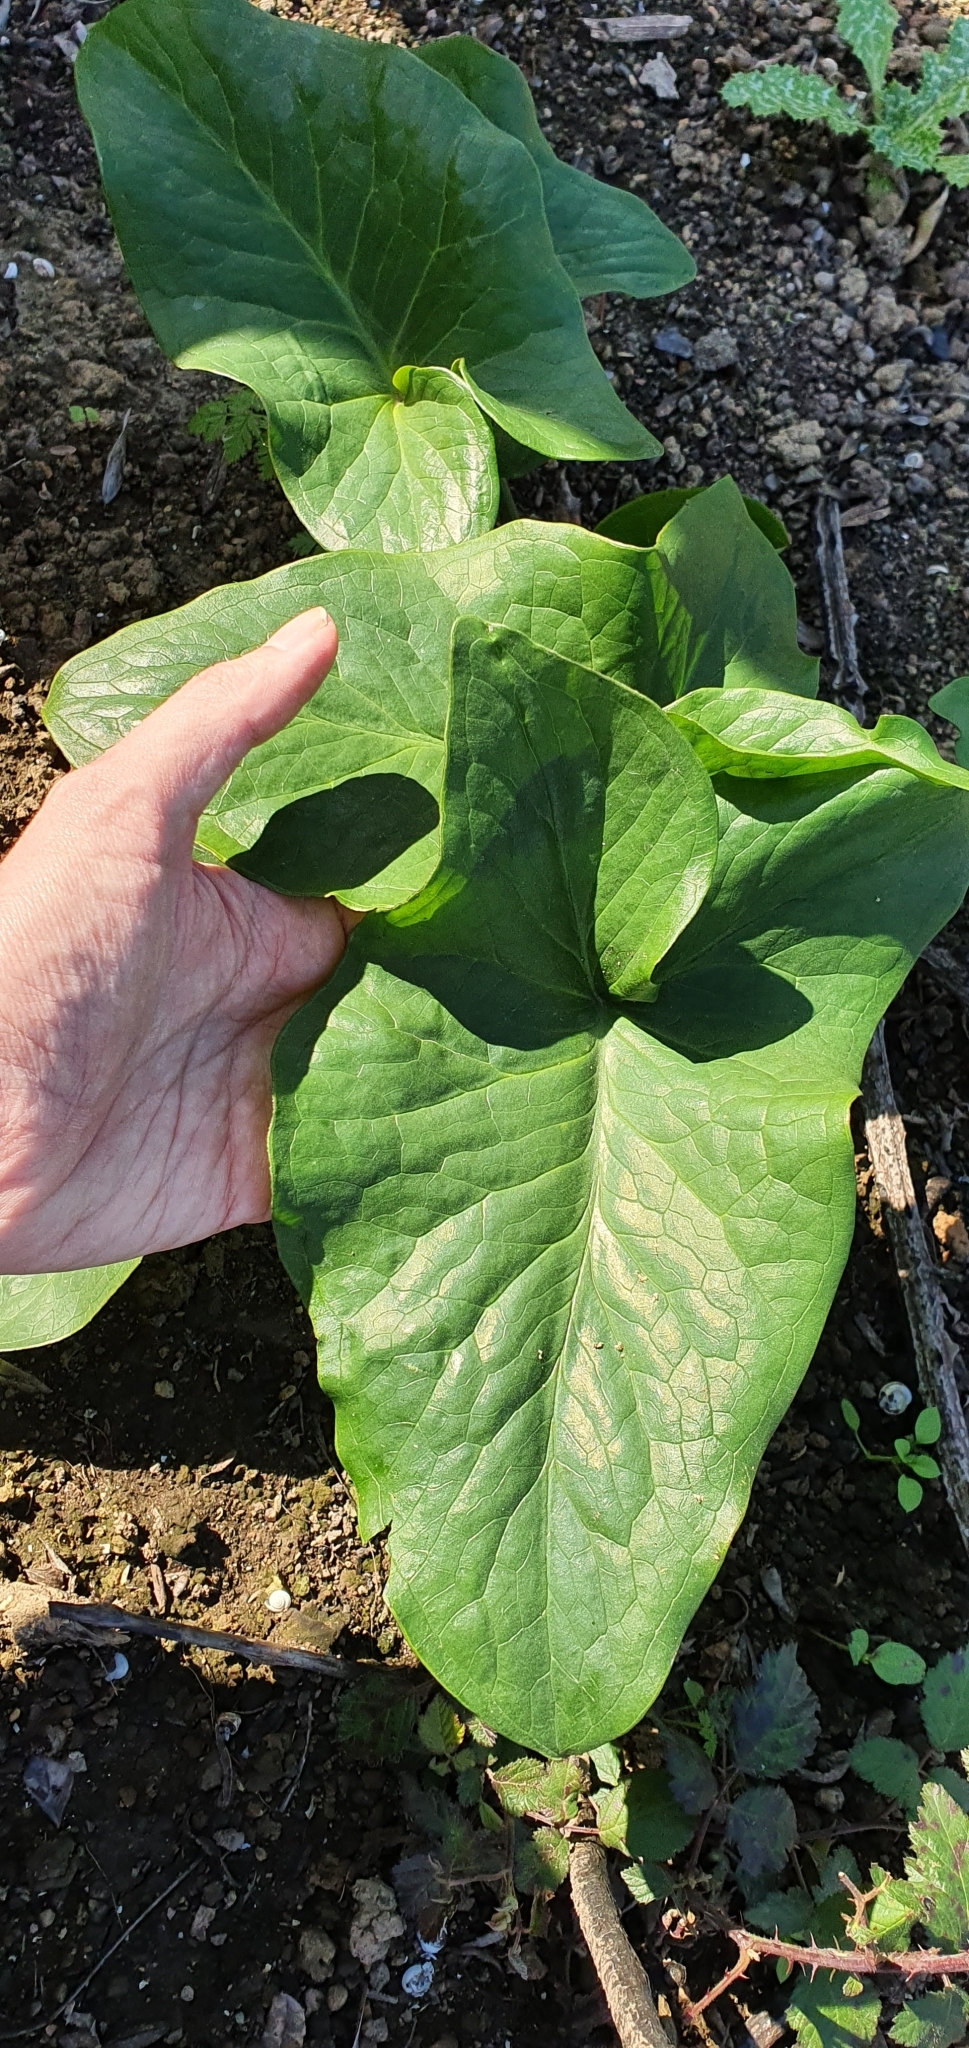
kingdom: Plantae
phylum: Tracheophyta
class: Liliopsida
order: Alismatales
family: Araceae
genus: Arum
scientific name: Arum italicum
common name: Italian lords-and-ladies
